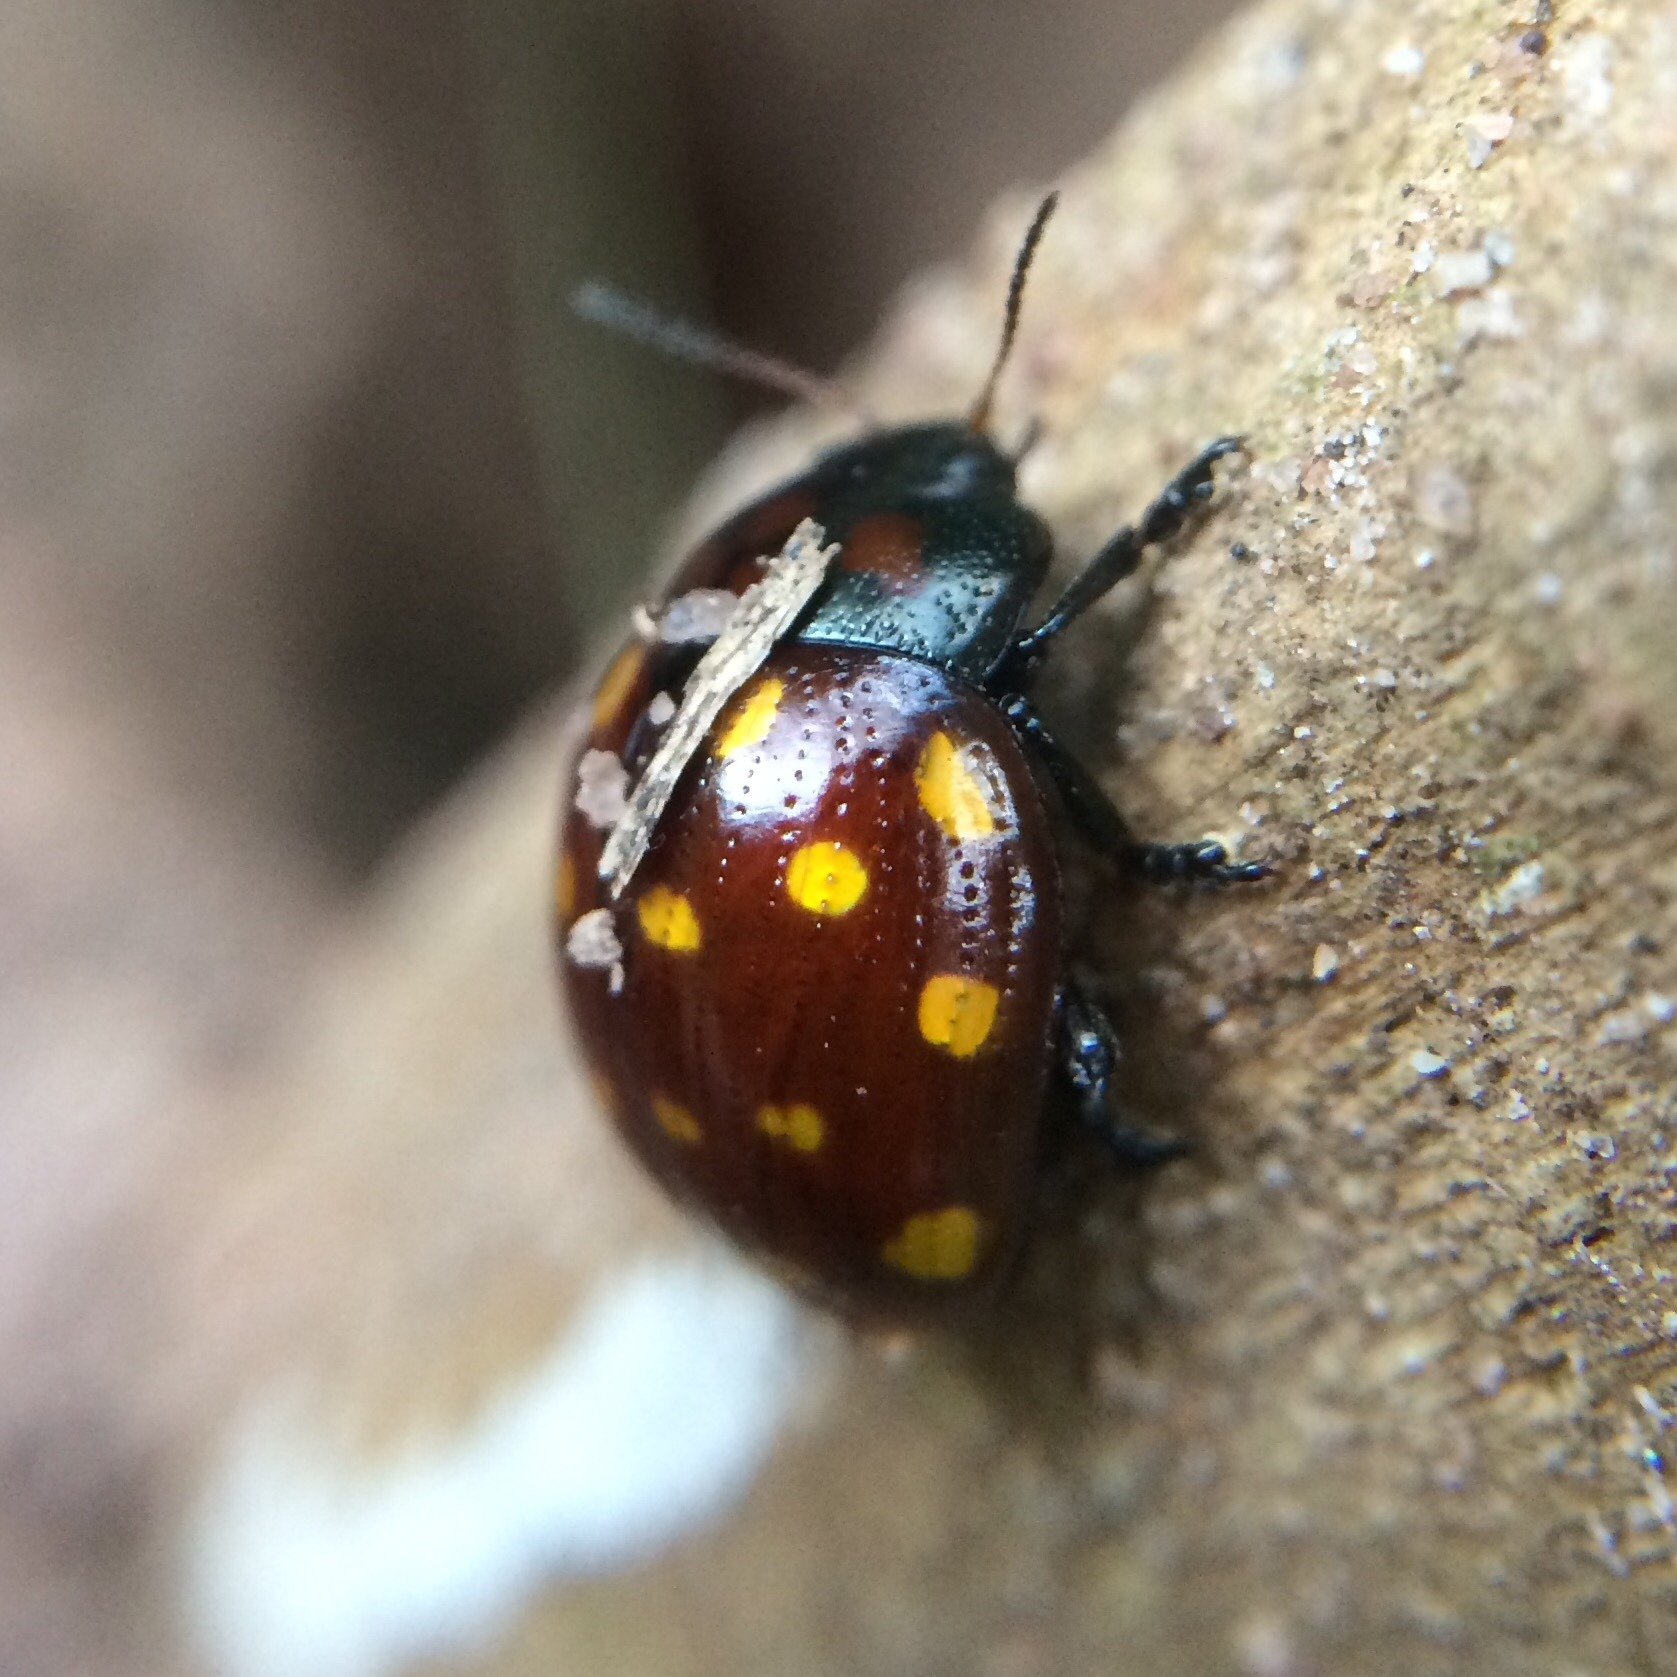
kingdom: Animalia
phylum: Arthropoda
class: Insecta
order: Coleoptera
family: Chrysomelidae
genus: Chrysolina
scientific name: Chrysolina
